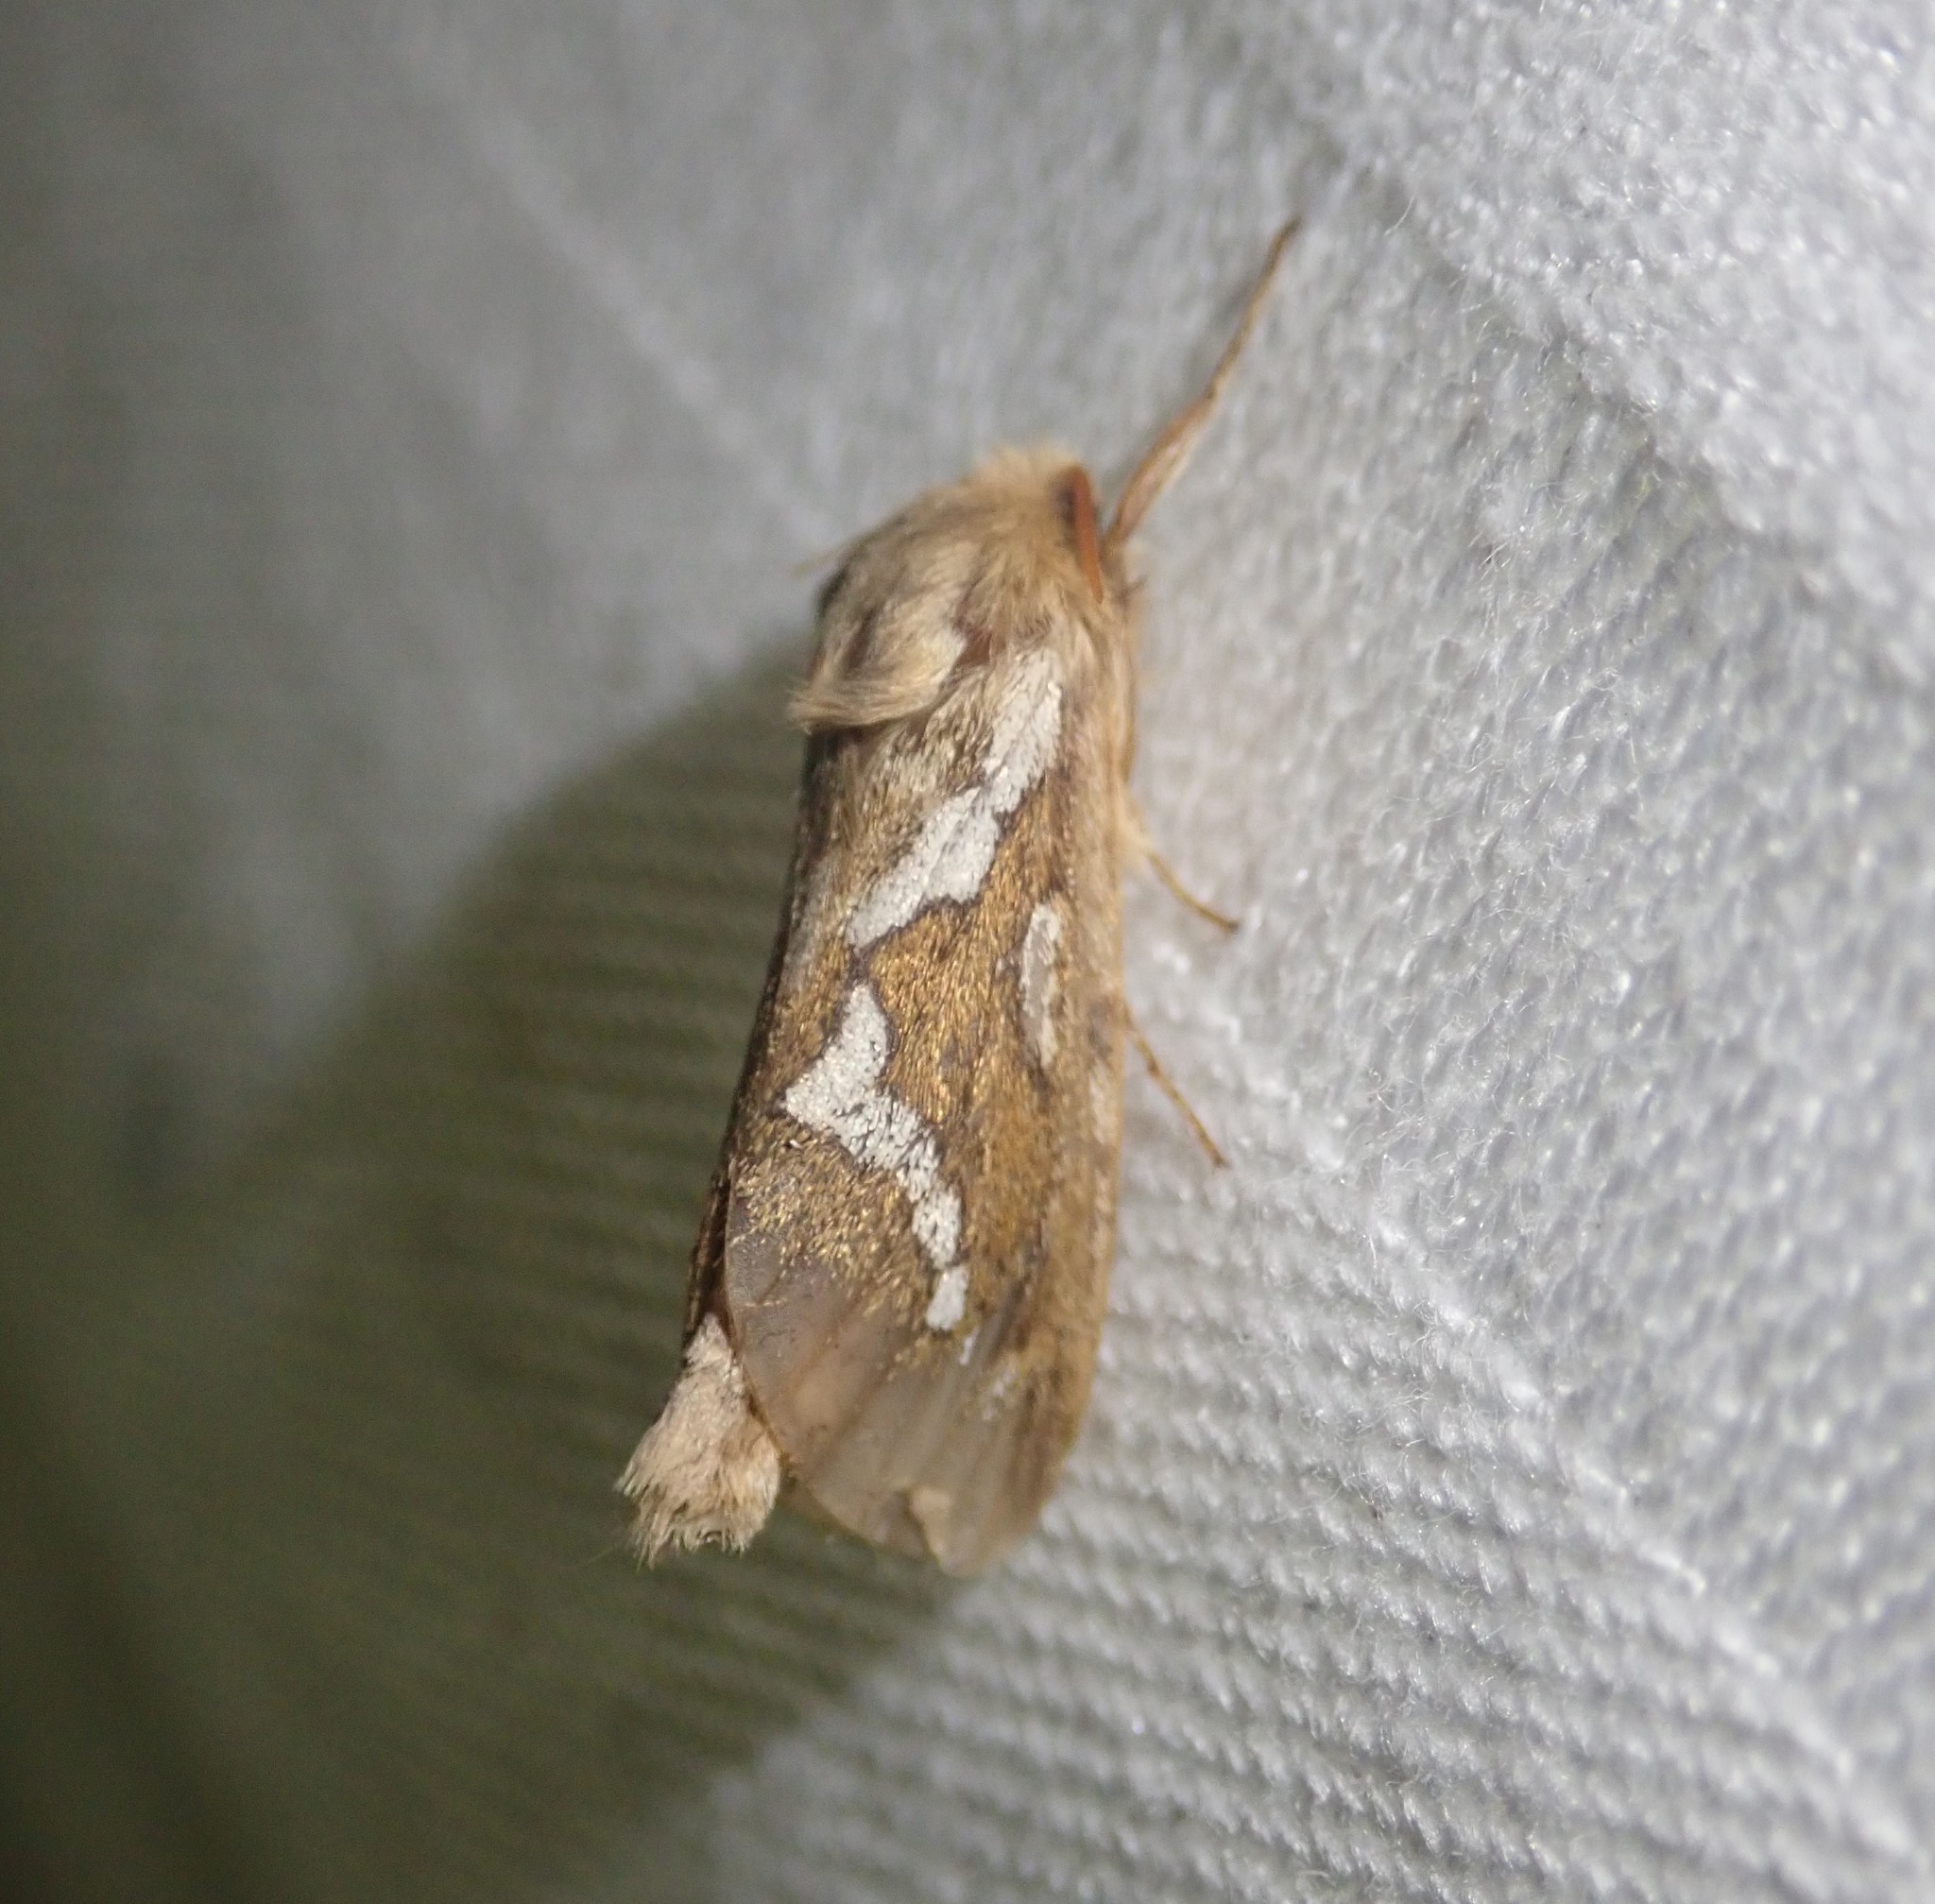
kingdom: Animalia
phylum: Arthropoda
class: Insecta
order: Lepidoptera
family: Hepialidae
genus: Korscheltellus
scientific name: Korscheltellus lupulina
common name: Common swift
